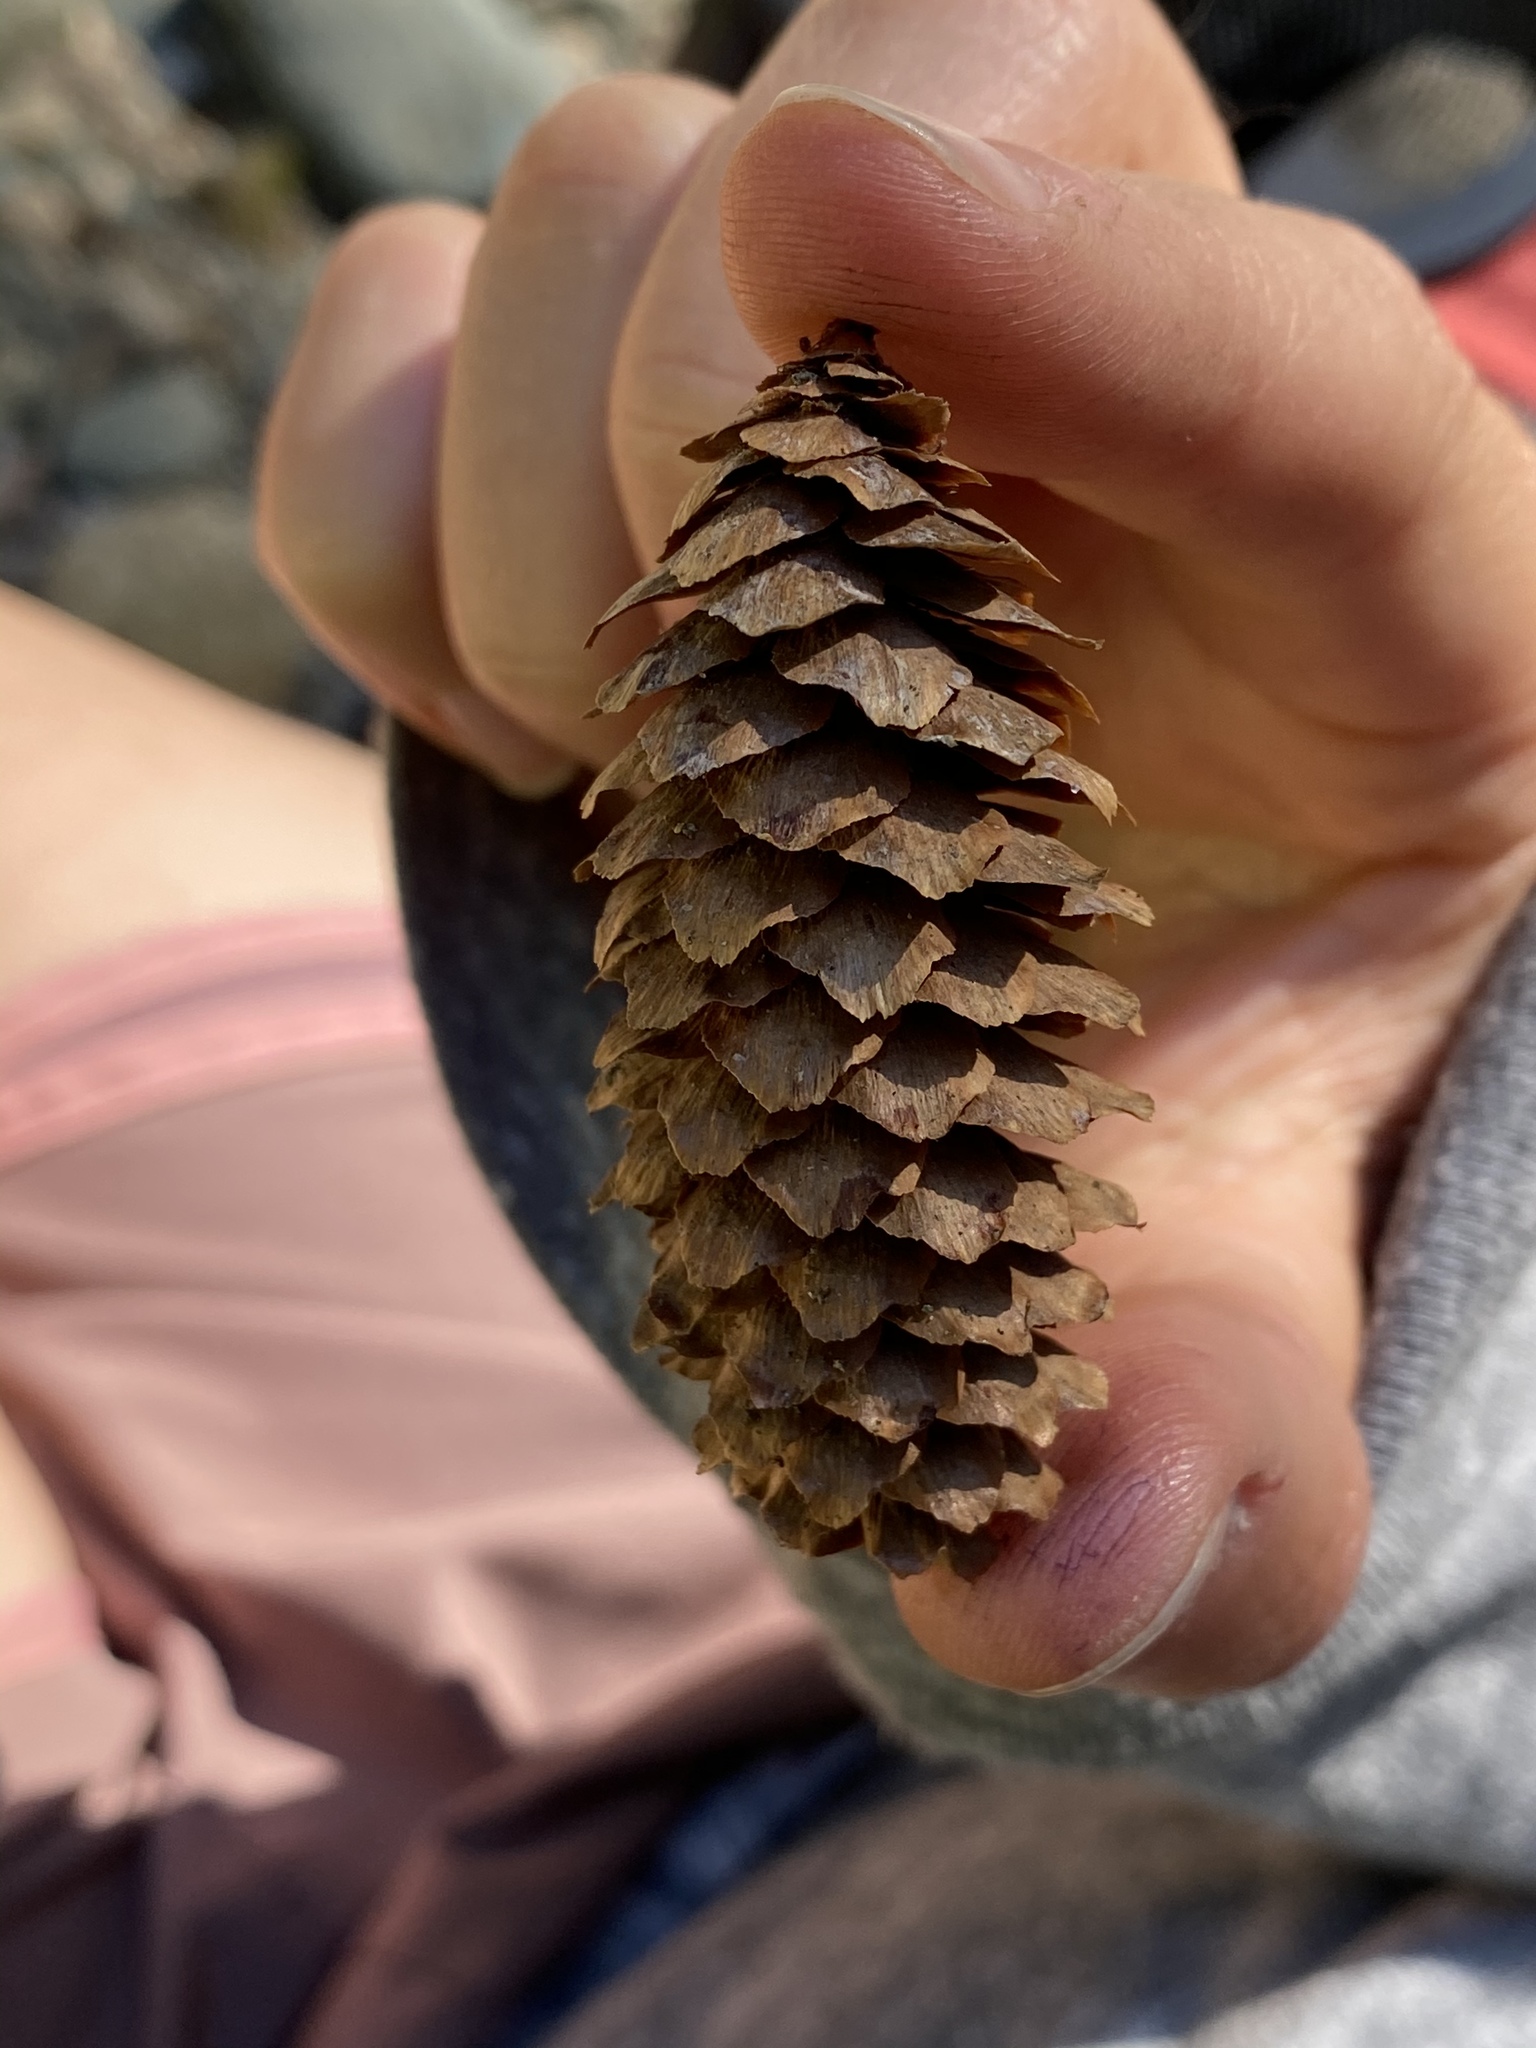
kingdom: Plantae
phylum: Tracheophyta
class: Pinopsida
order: Pinales
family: Pinaceae
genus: Picea
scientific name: Picea engelmannii
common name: Engelmann spruce
